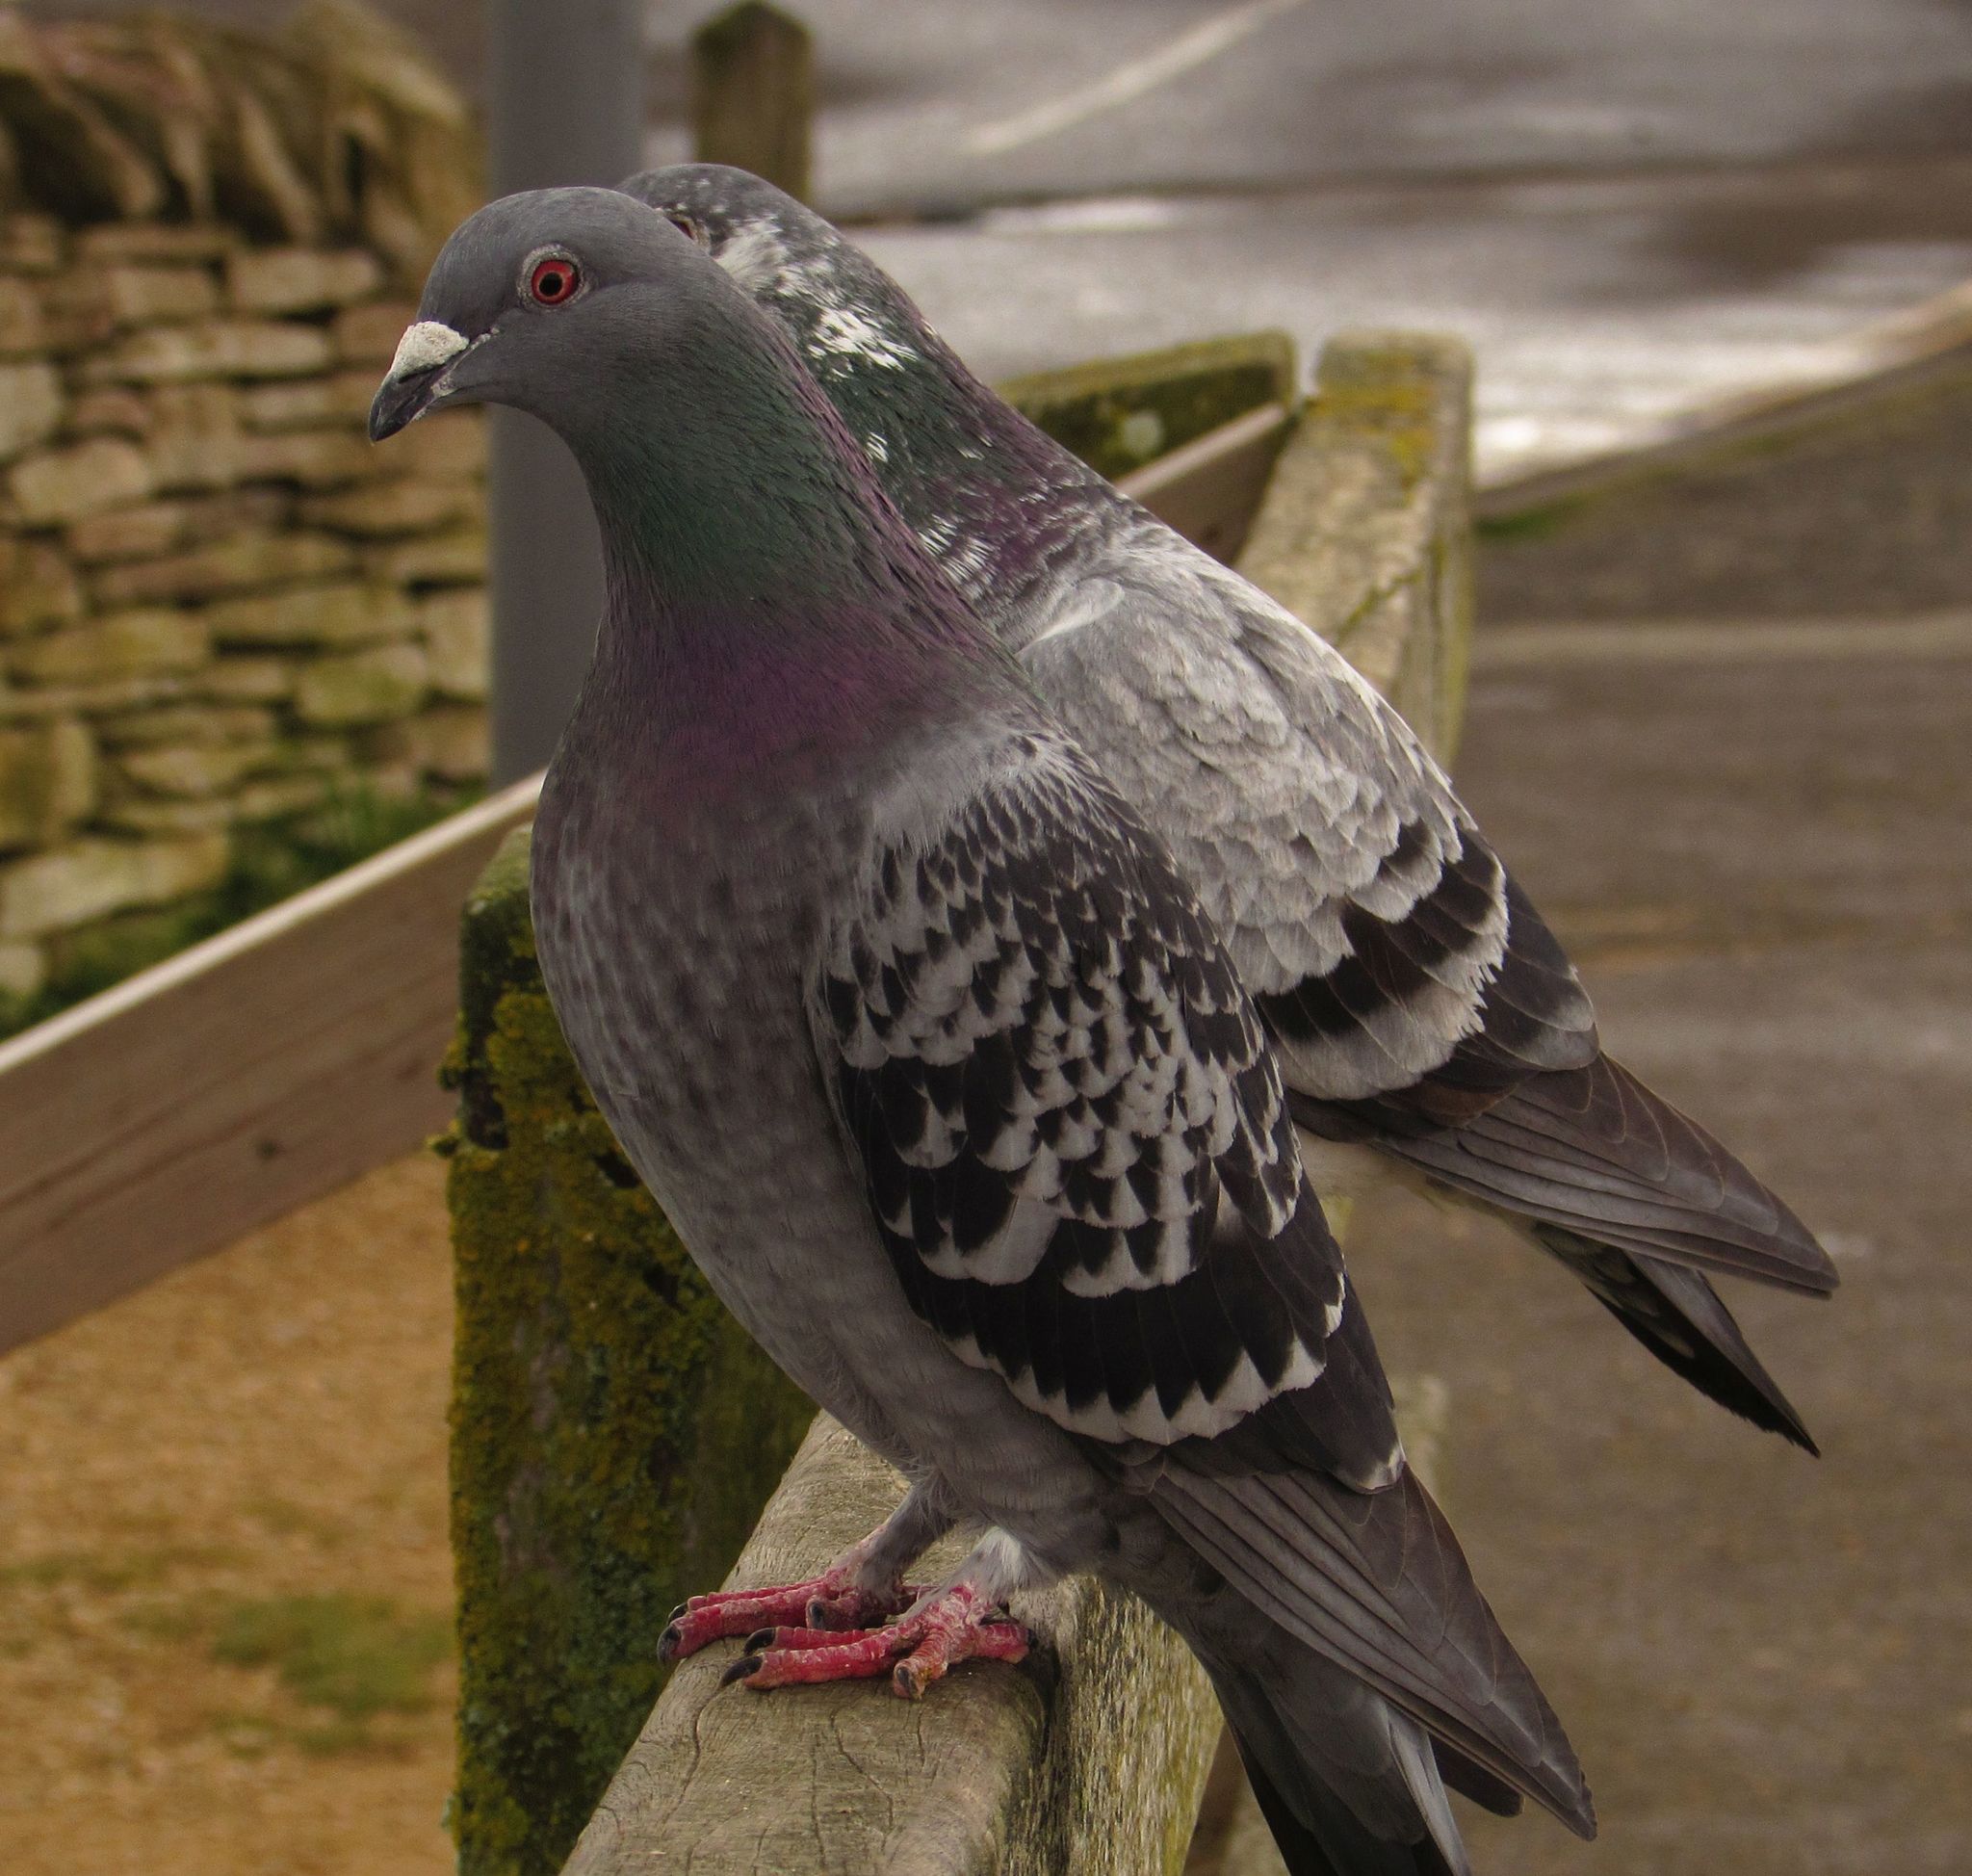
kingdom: Animalia
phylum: Chordata
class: Aves
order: Columbiformes
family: Columbidae
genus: Columba
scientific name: Columba livia
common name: Rock pigeon
